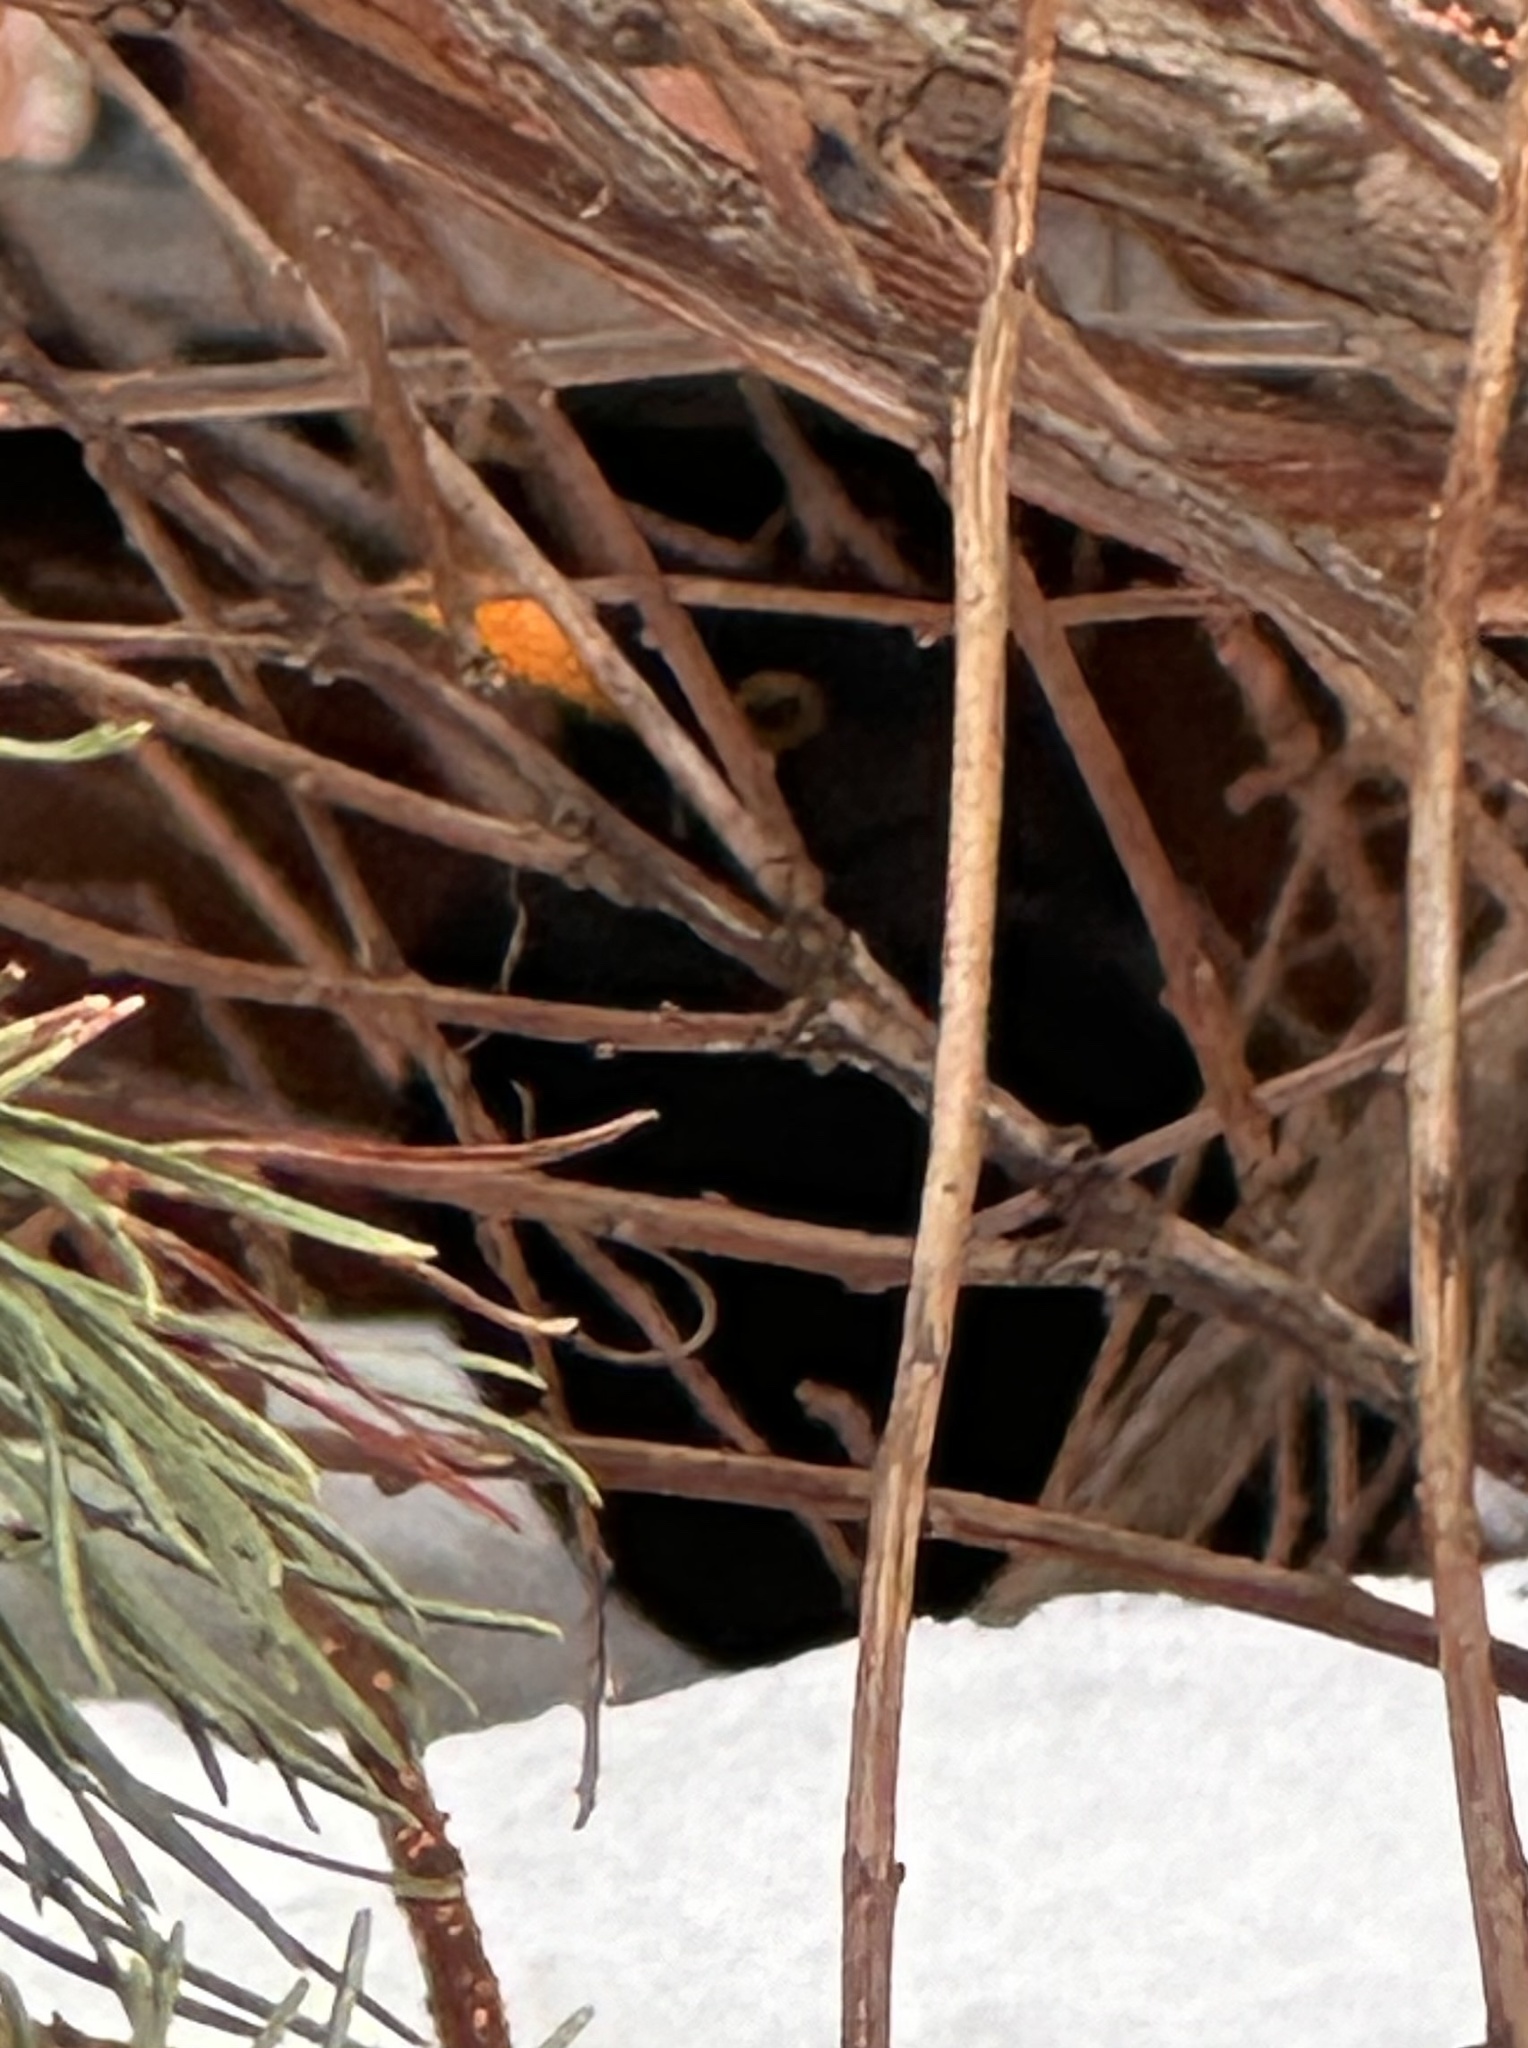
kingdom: Animalia
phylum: Chordata
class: Aves
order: Passeriformes
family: Turdidae
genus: Turdus
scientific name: Turdus merula
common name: Common blackbird
